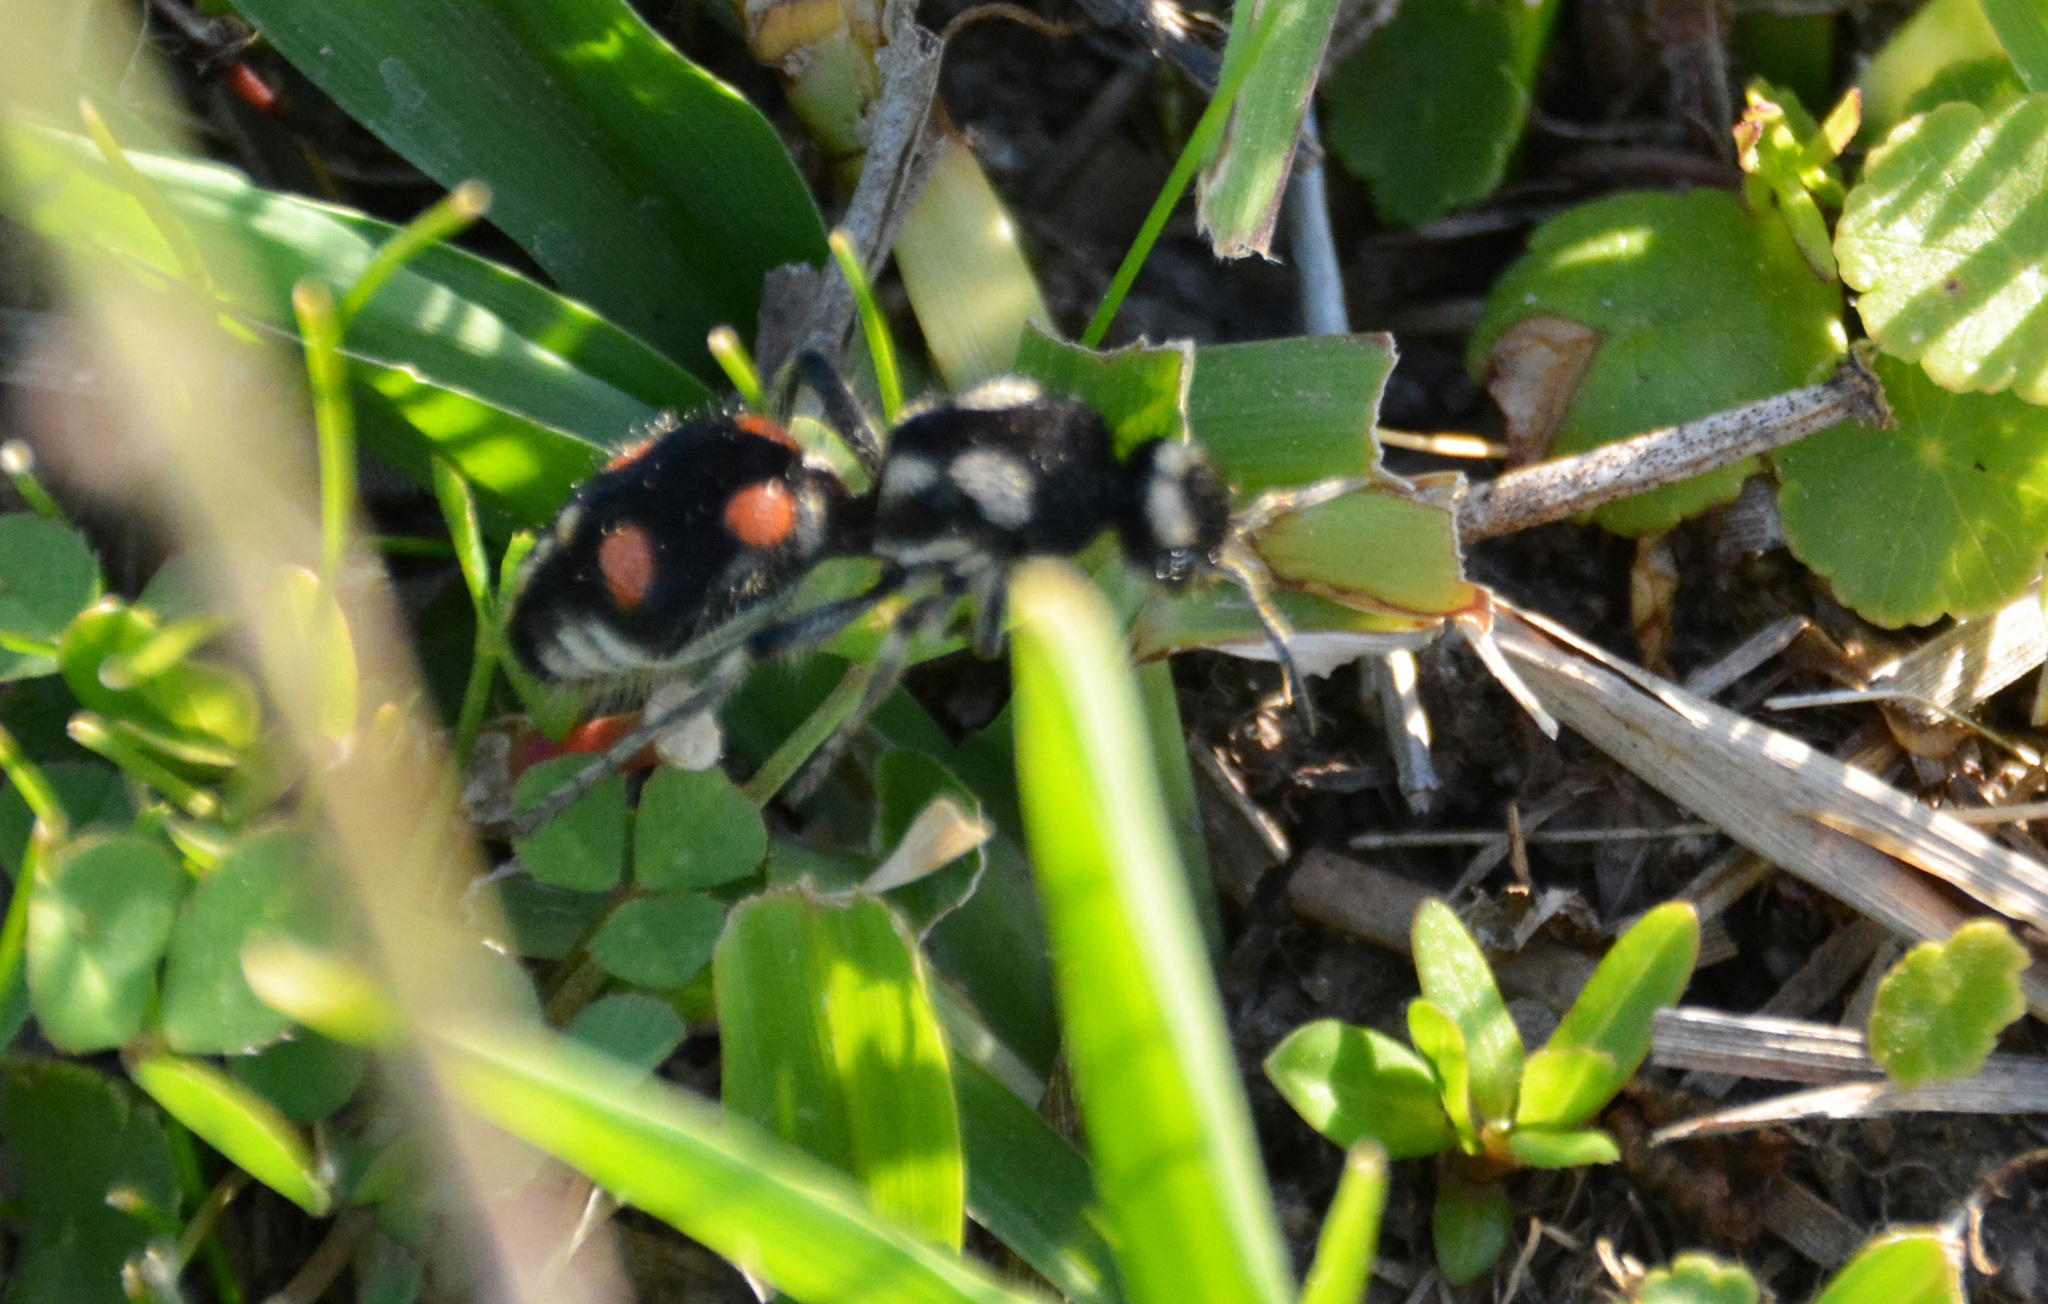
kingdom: Animalia
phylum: Arthropoda
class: Insecta
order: Hymenoptera
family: Mutillidae
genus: Traumatomutilla
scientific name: Traumatomutilla
